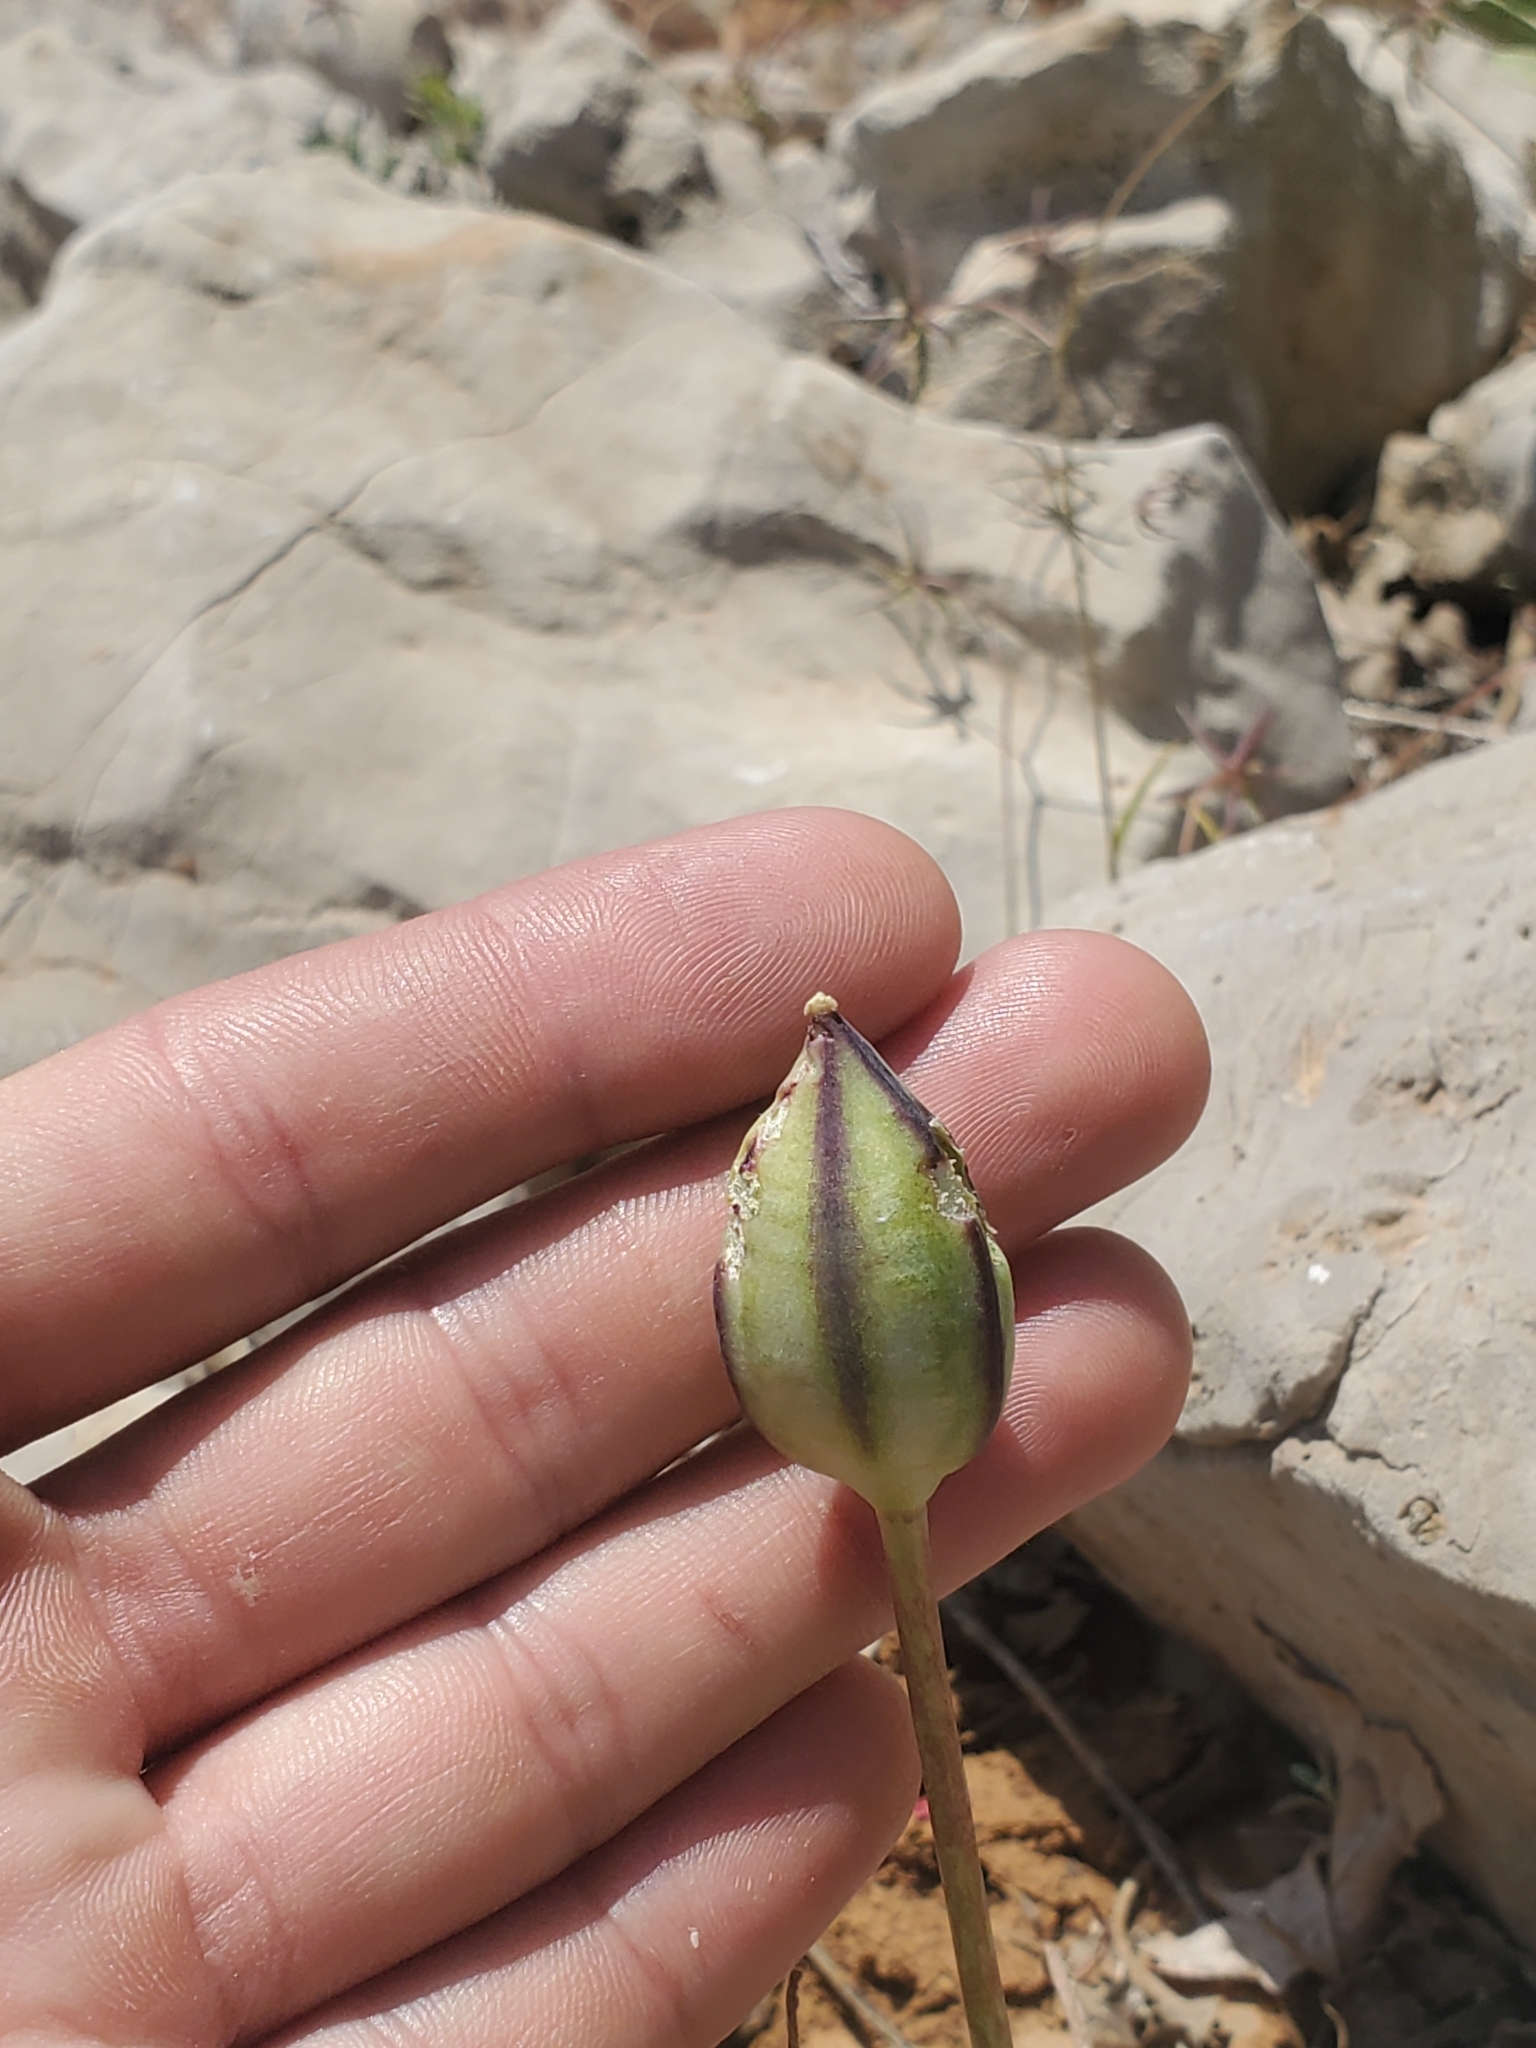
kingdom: Plantae
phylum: Tracheophyta
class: Liliopsida
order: Liliales
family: Liliaceae
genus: Tulipa
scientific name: Tulipa humilis
